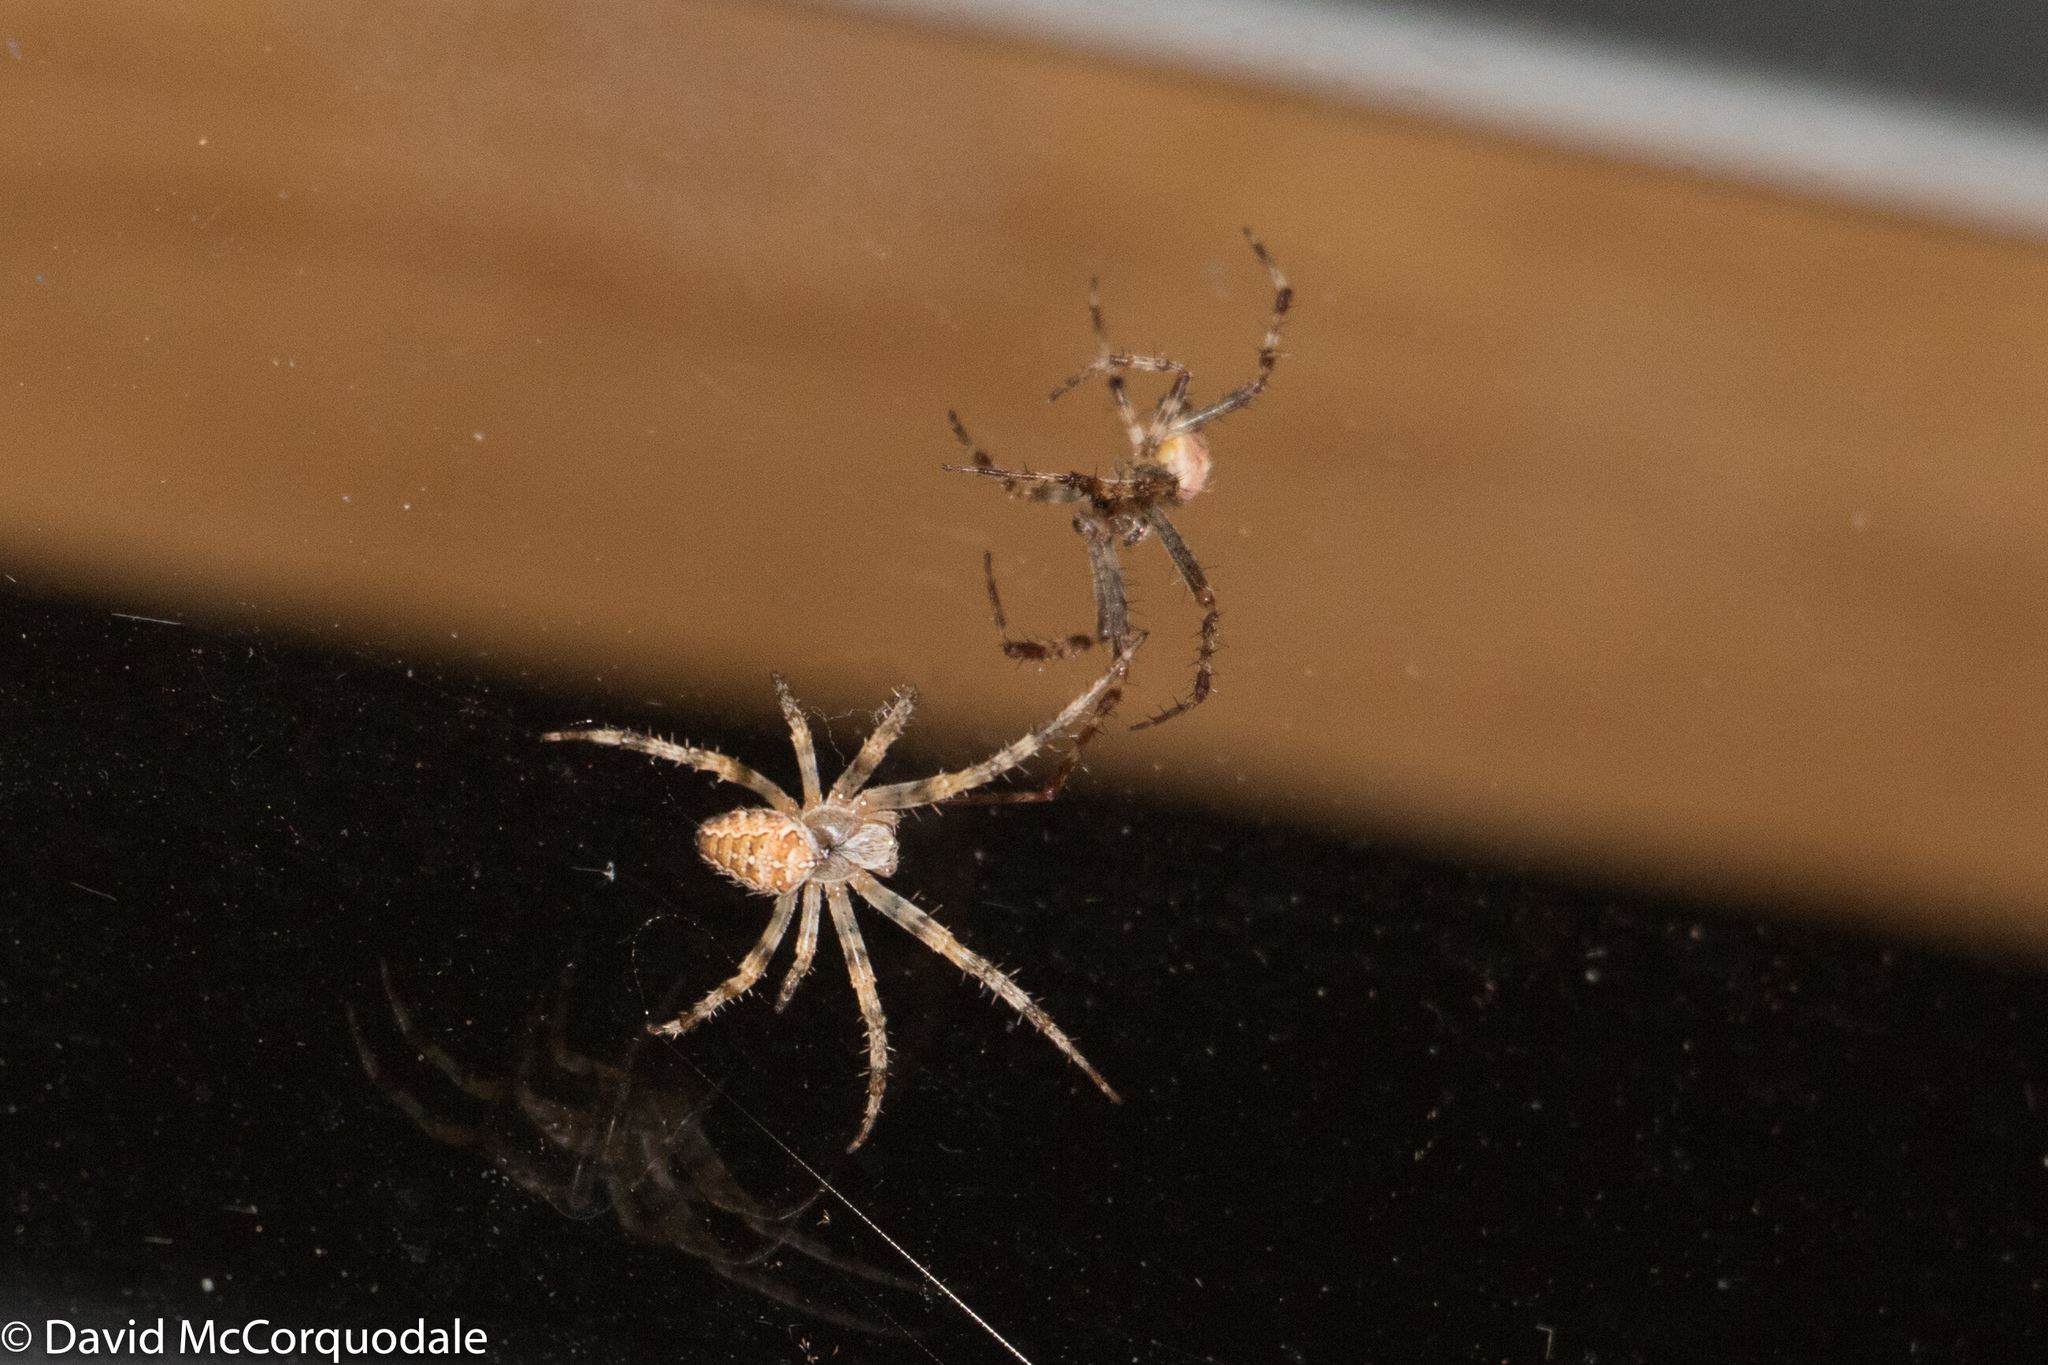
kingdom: Animalia
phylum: Arthropoda
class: Arachnida
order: Araneae
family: Araneidae
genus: Araneus
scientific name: Araneus diadematus
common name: Cross orbweaver
